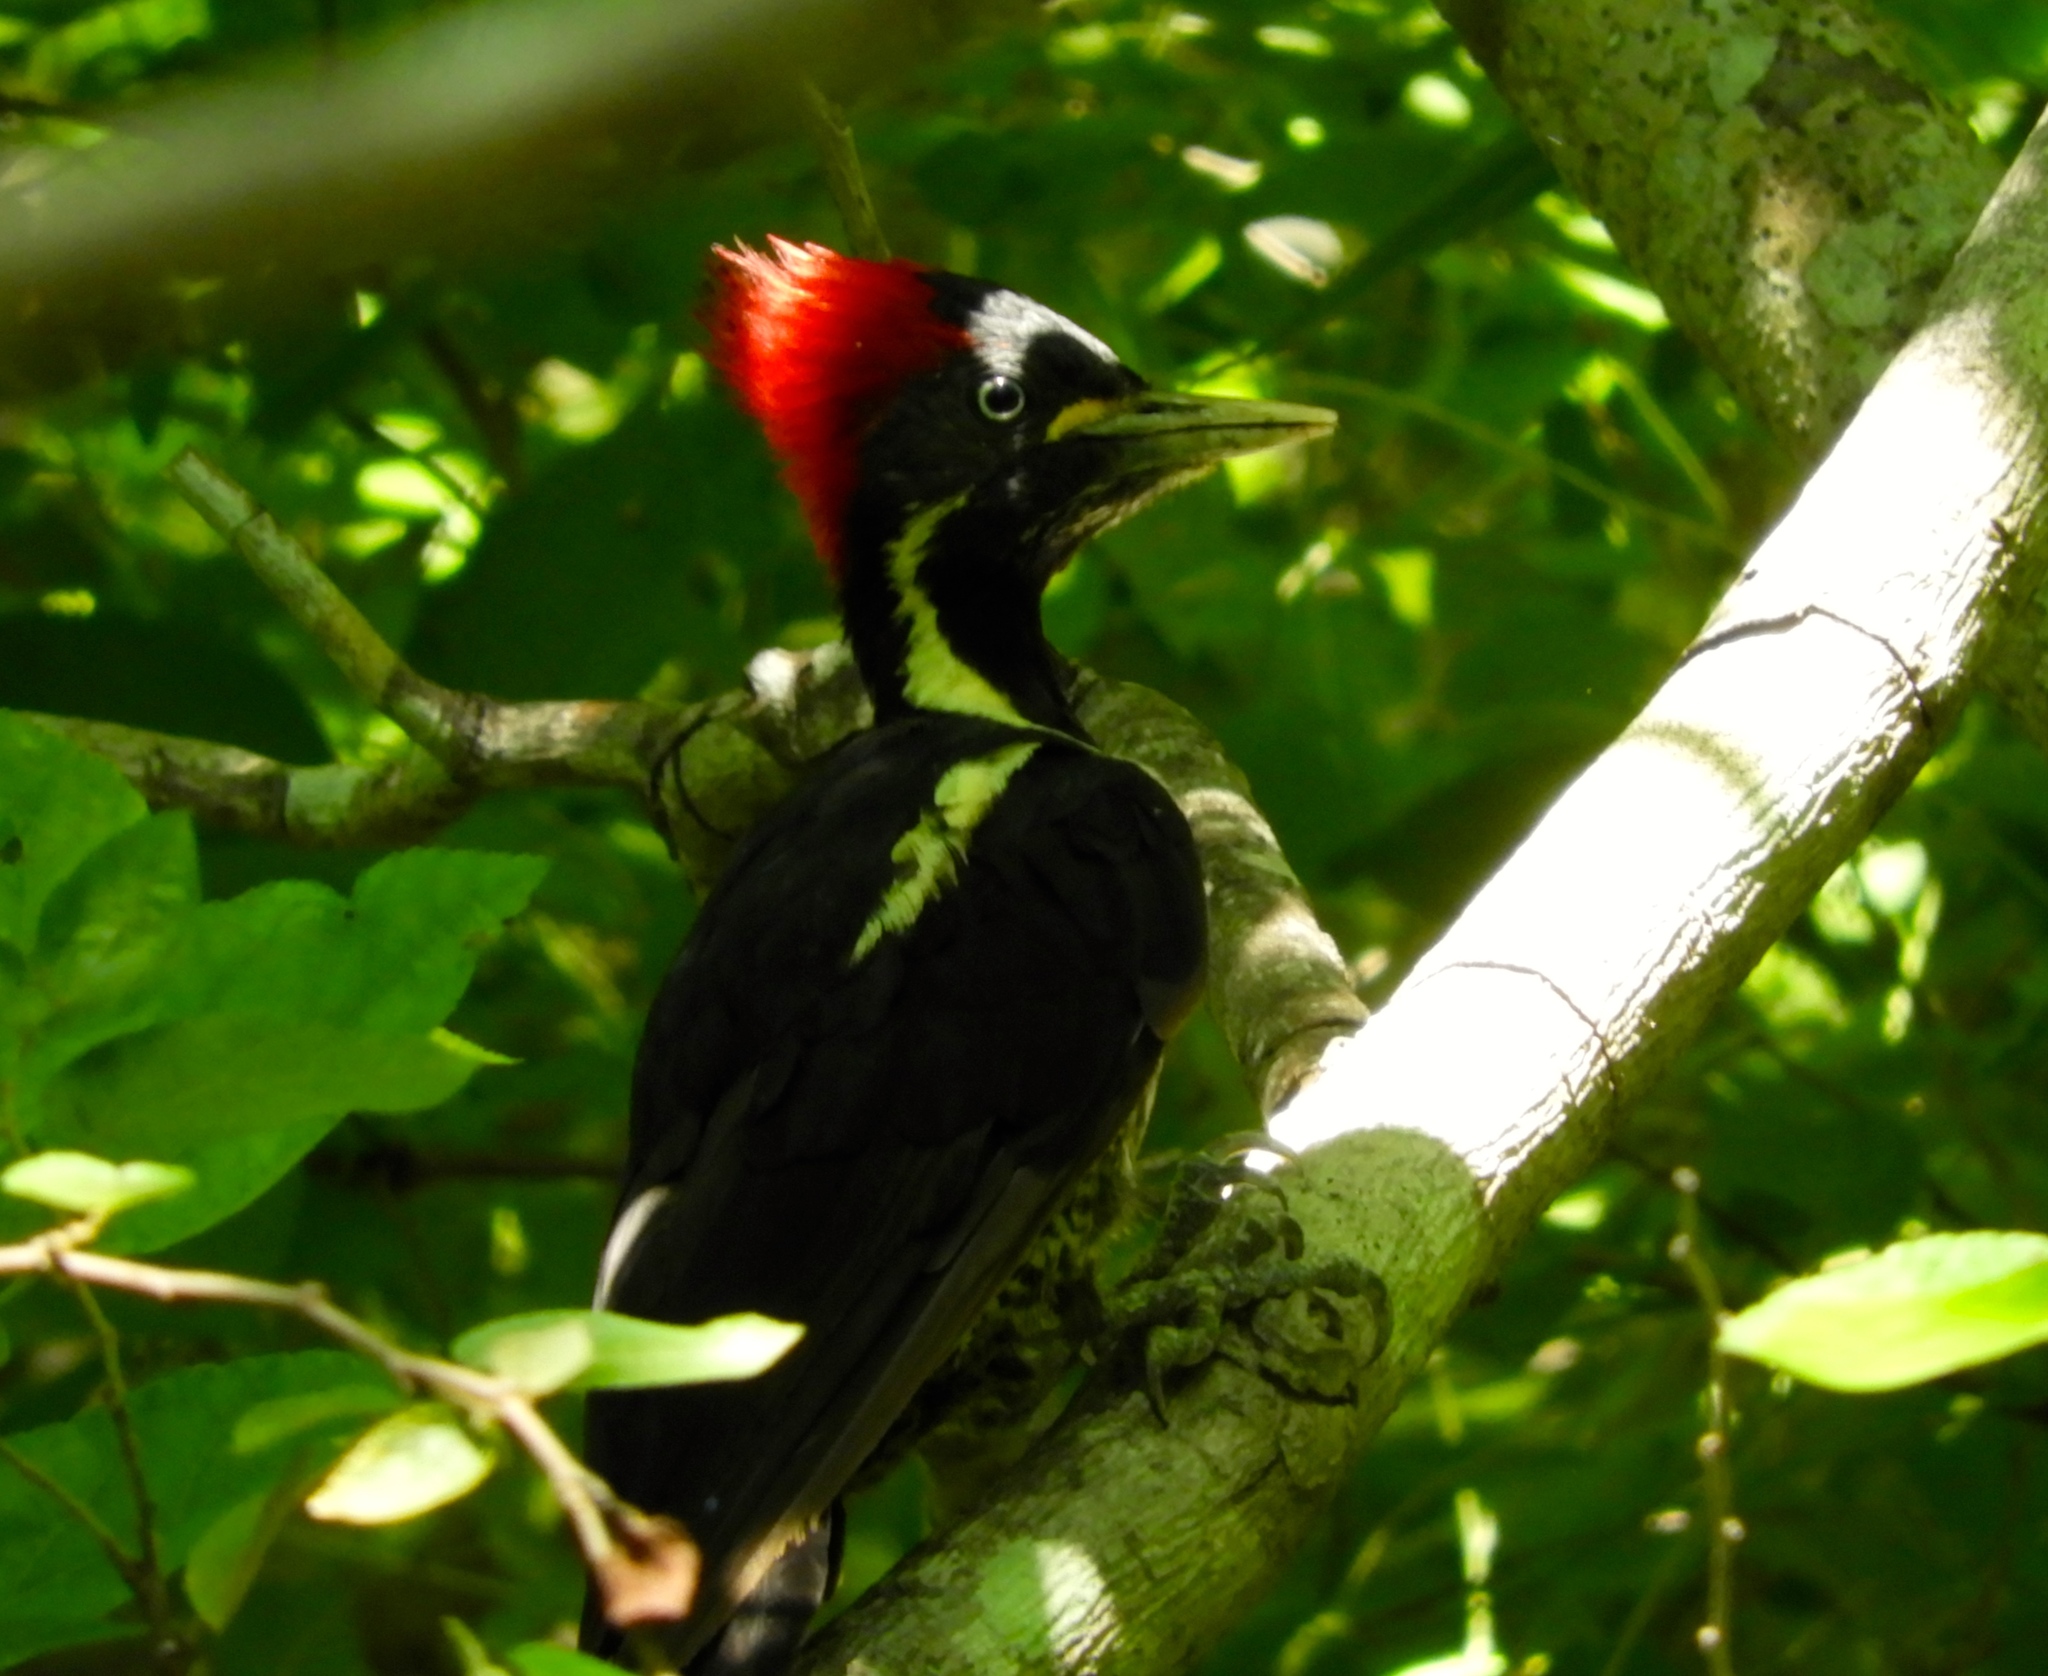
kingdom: Animalia
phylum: Chordata
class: Aves
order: Piciformes
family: Picidae
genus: Dryocopus
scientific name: Dryocopus lineatus
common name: Lineated woodpecker
